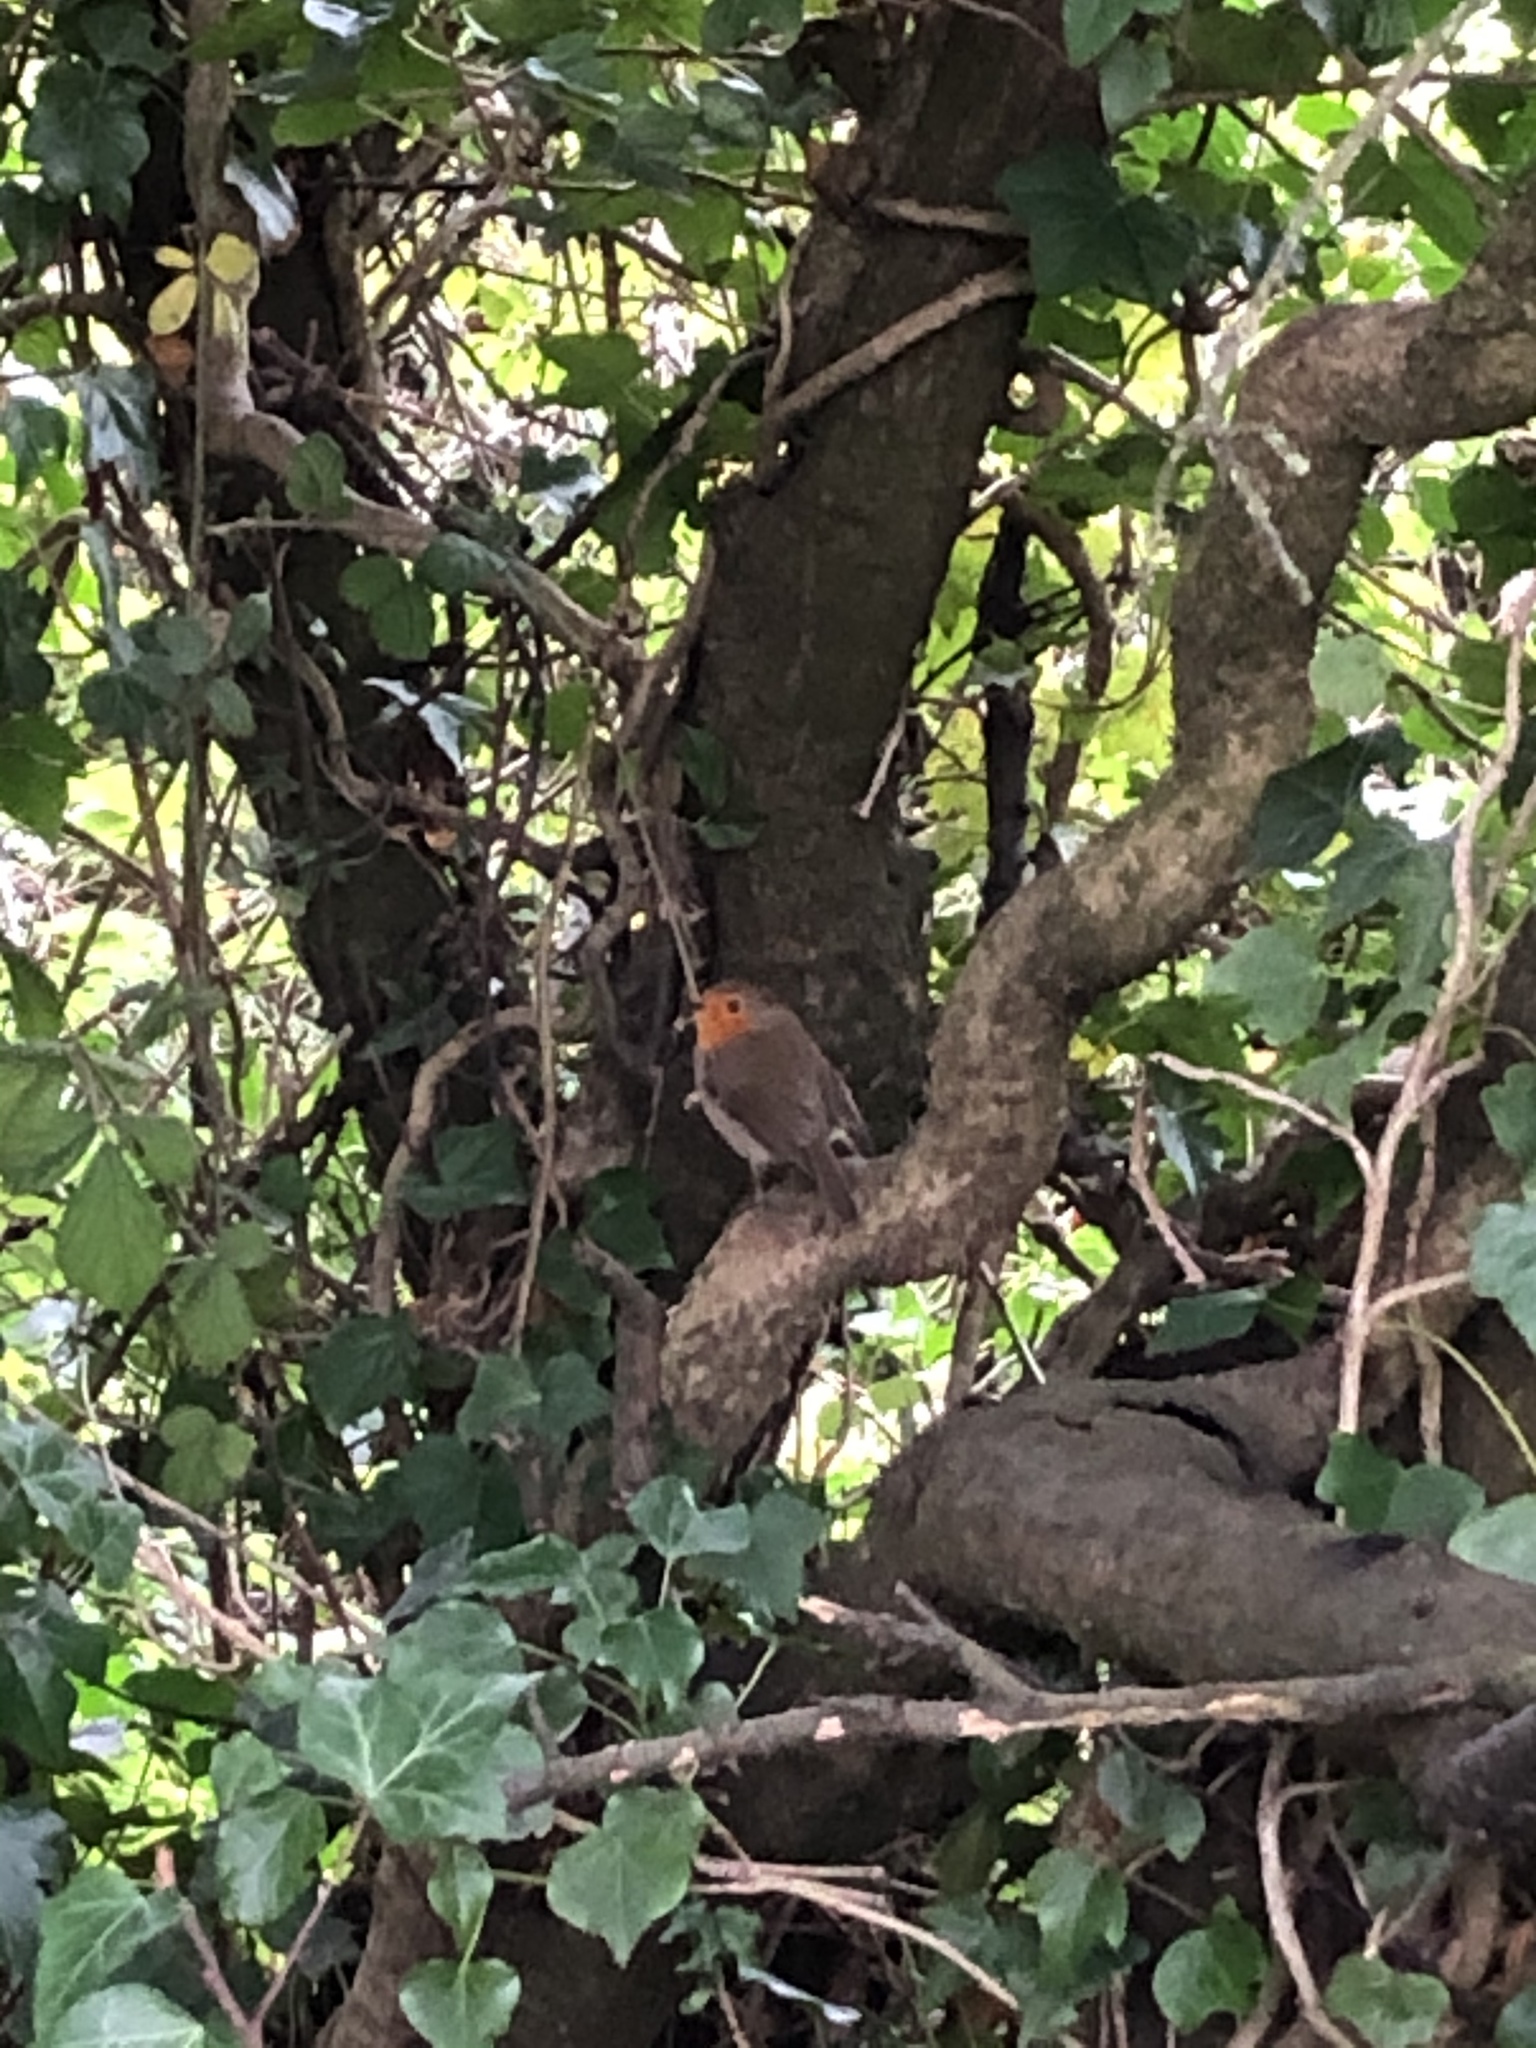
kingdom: Animalia
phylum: Chordata
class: Aves
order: Passeriformes
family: Muscicapidae
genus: Erithacus
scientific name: Erithacus rubecula
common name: European robin
